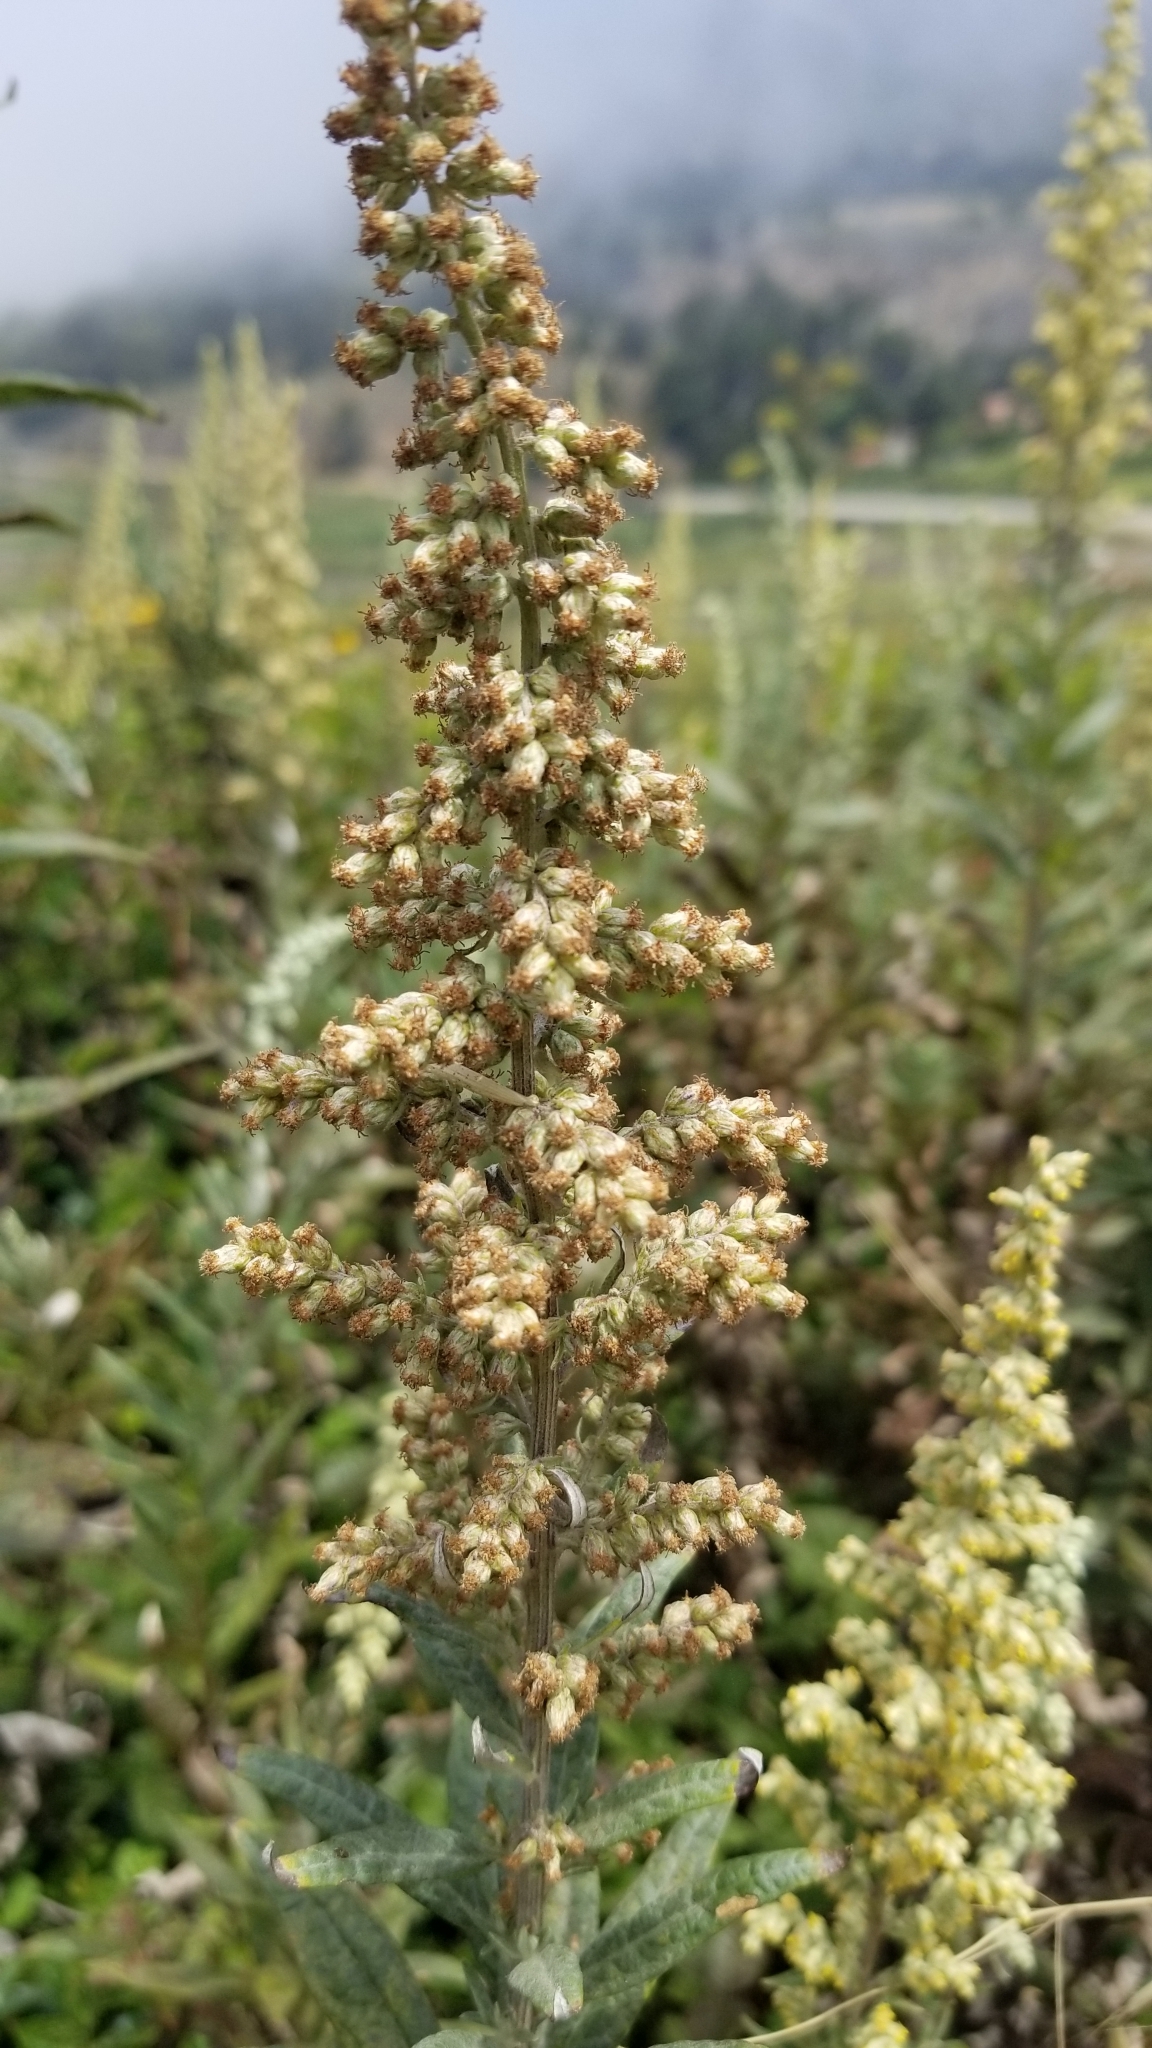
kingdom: Plantae
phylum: Tracheophyta
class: Magnoliopsida
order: Asterales
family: Asteraceae
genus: Artemisia
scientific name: Artemisia douglasiana
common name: Northwest mugwort
